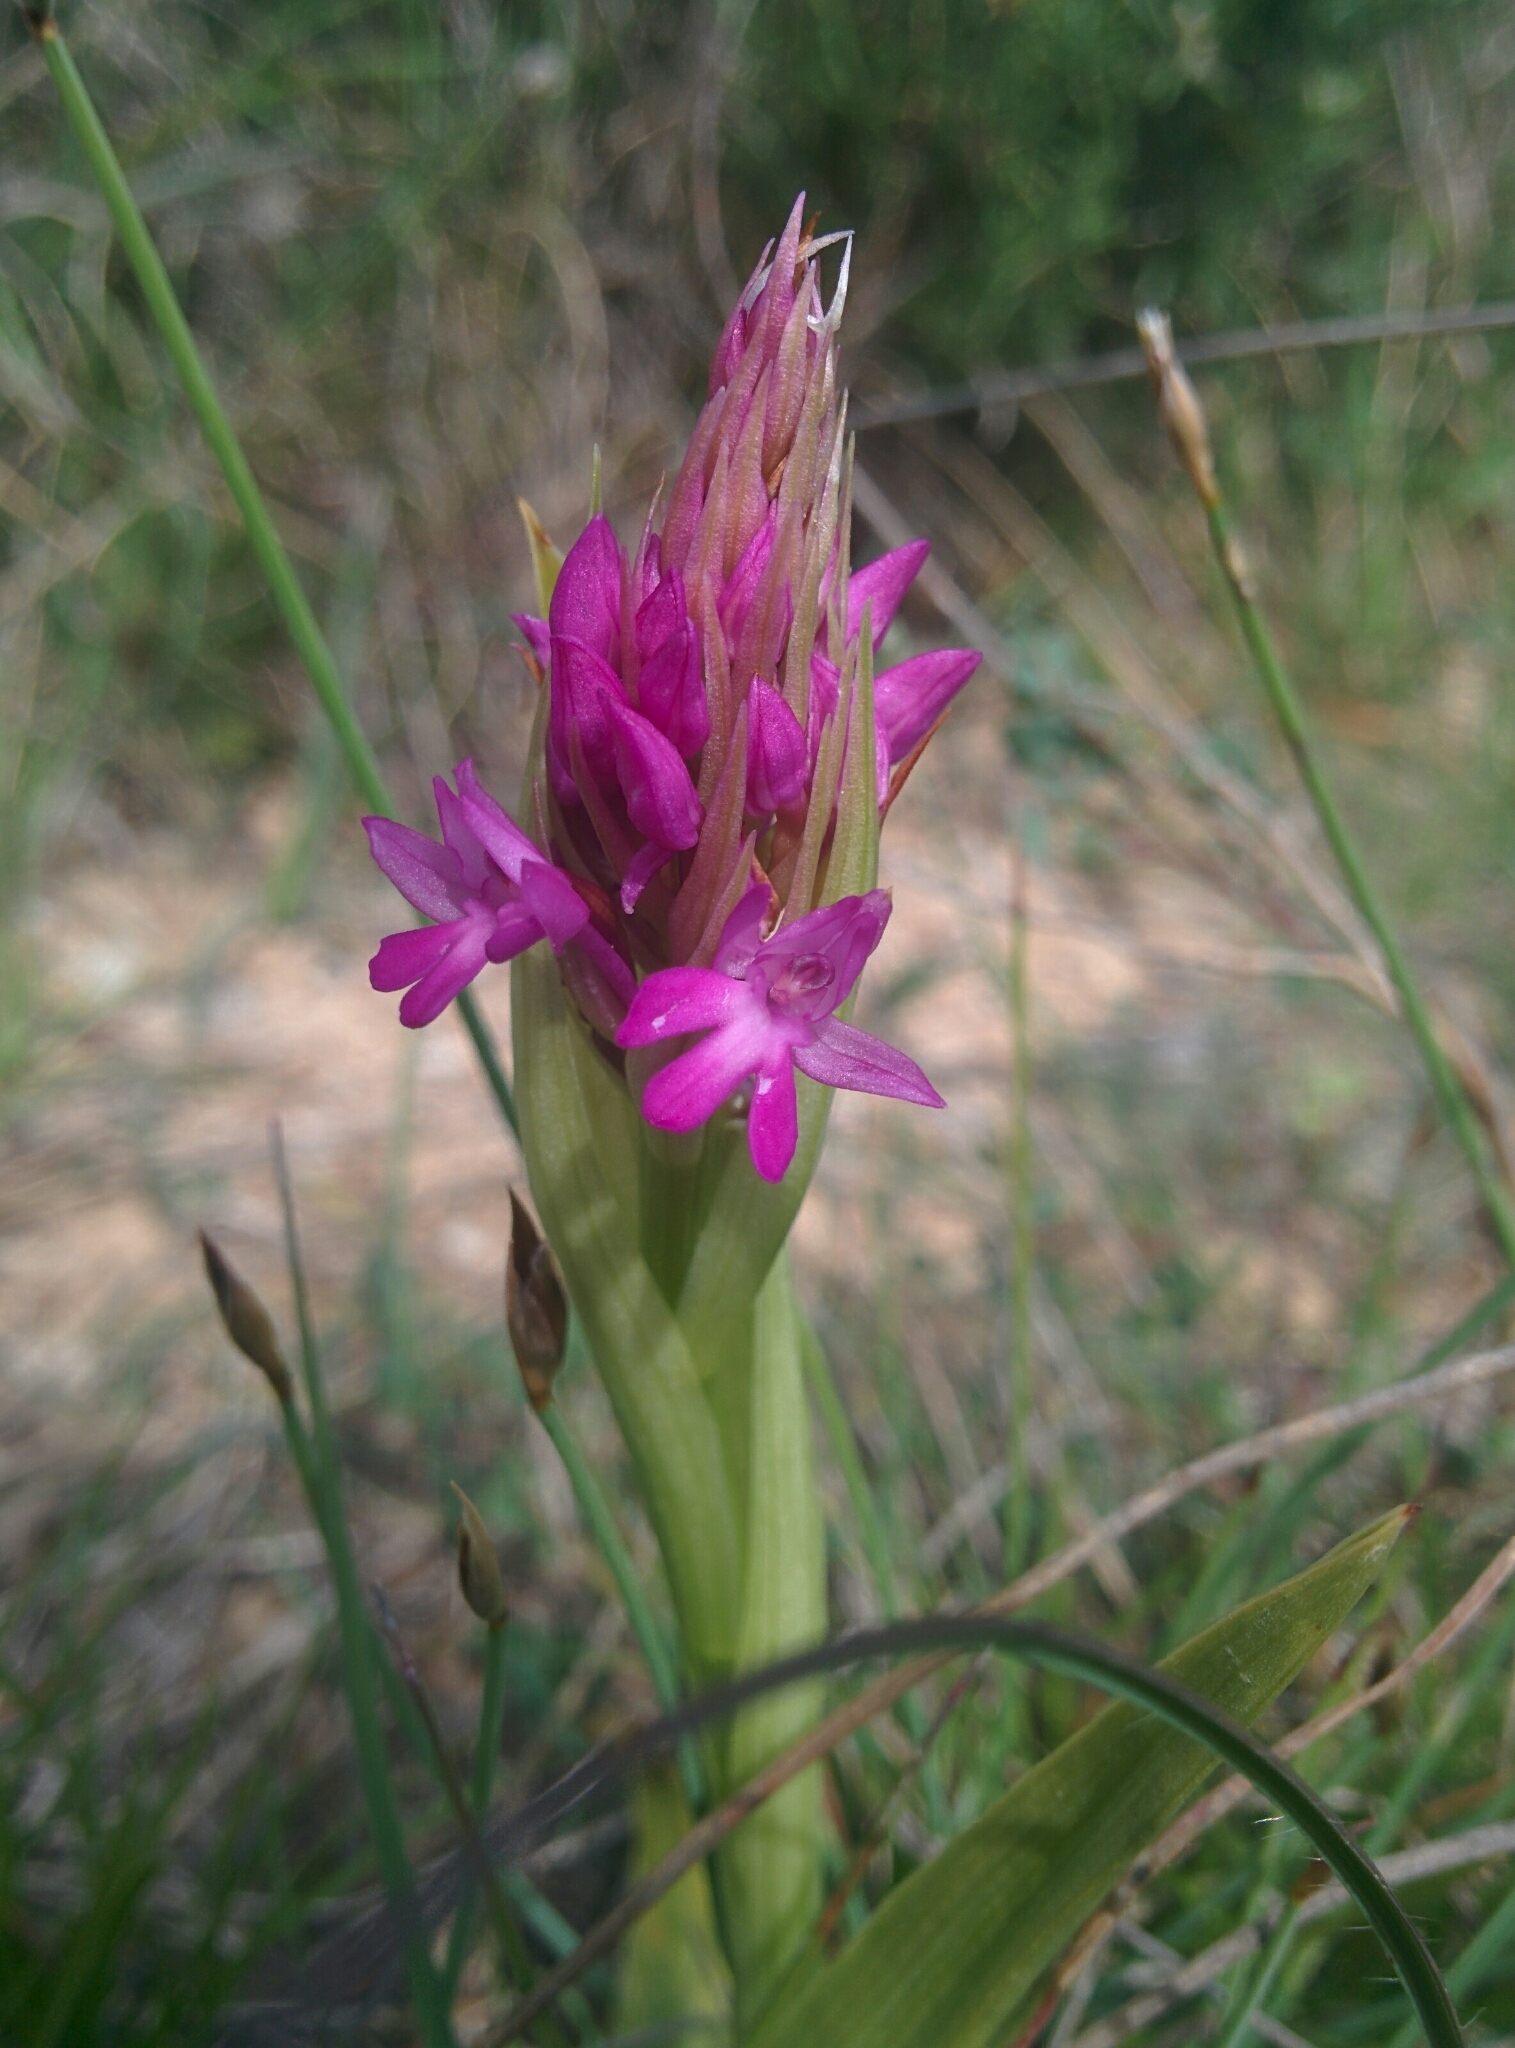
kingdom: Plantae
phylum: Tracheophyta
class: Liliopsida
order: Asparagales
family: Orchidaceae
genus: Anacamptis
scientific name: Anacamptis pyramidalis
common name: Pyramidal orchid
